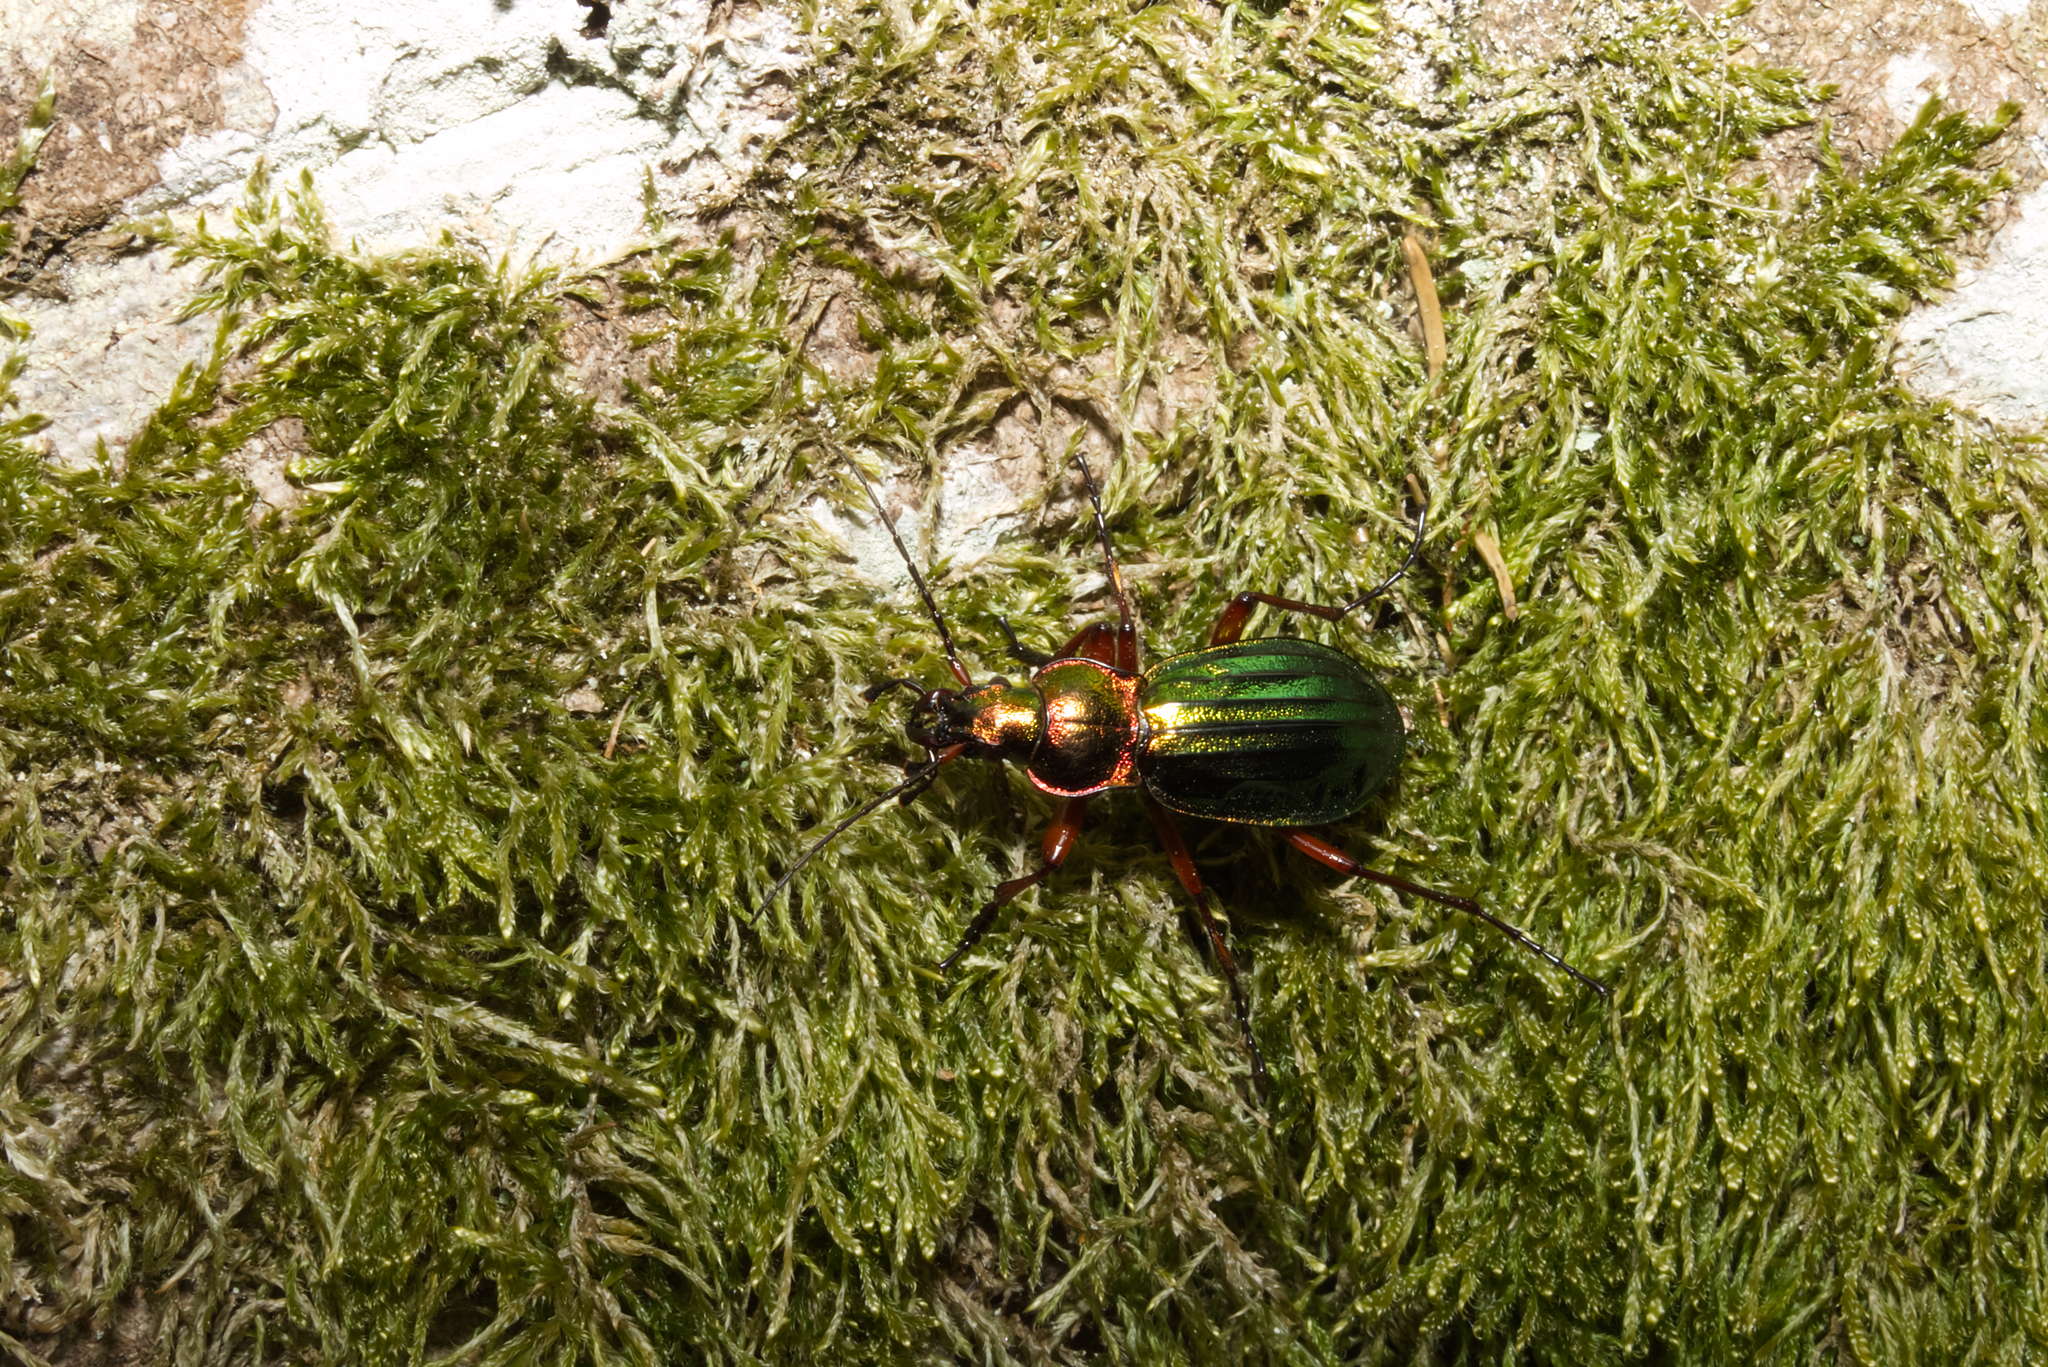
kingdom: Animalia
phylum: Arthropoda
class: Insecta
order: Coleoptera
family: Carabidae
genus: Carabus
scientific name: Carabus auronitens
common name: Carabus auronitens
